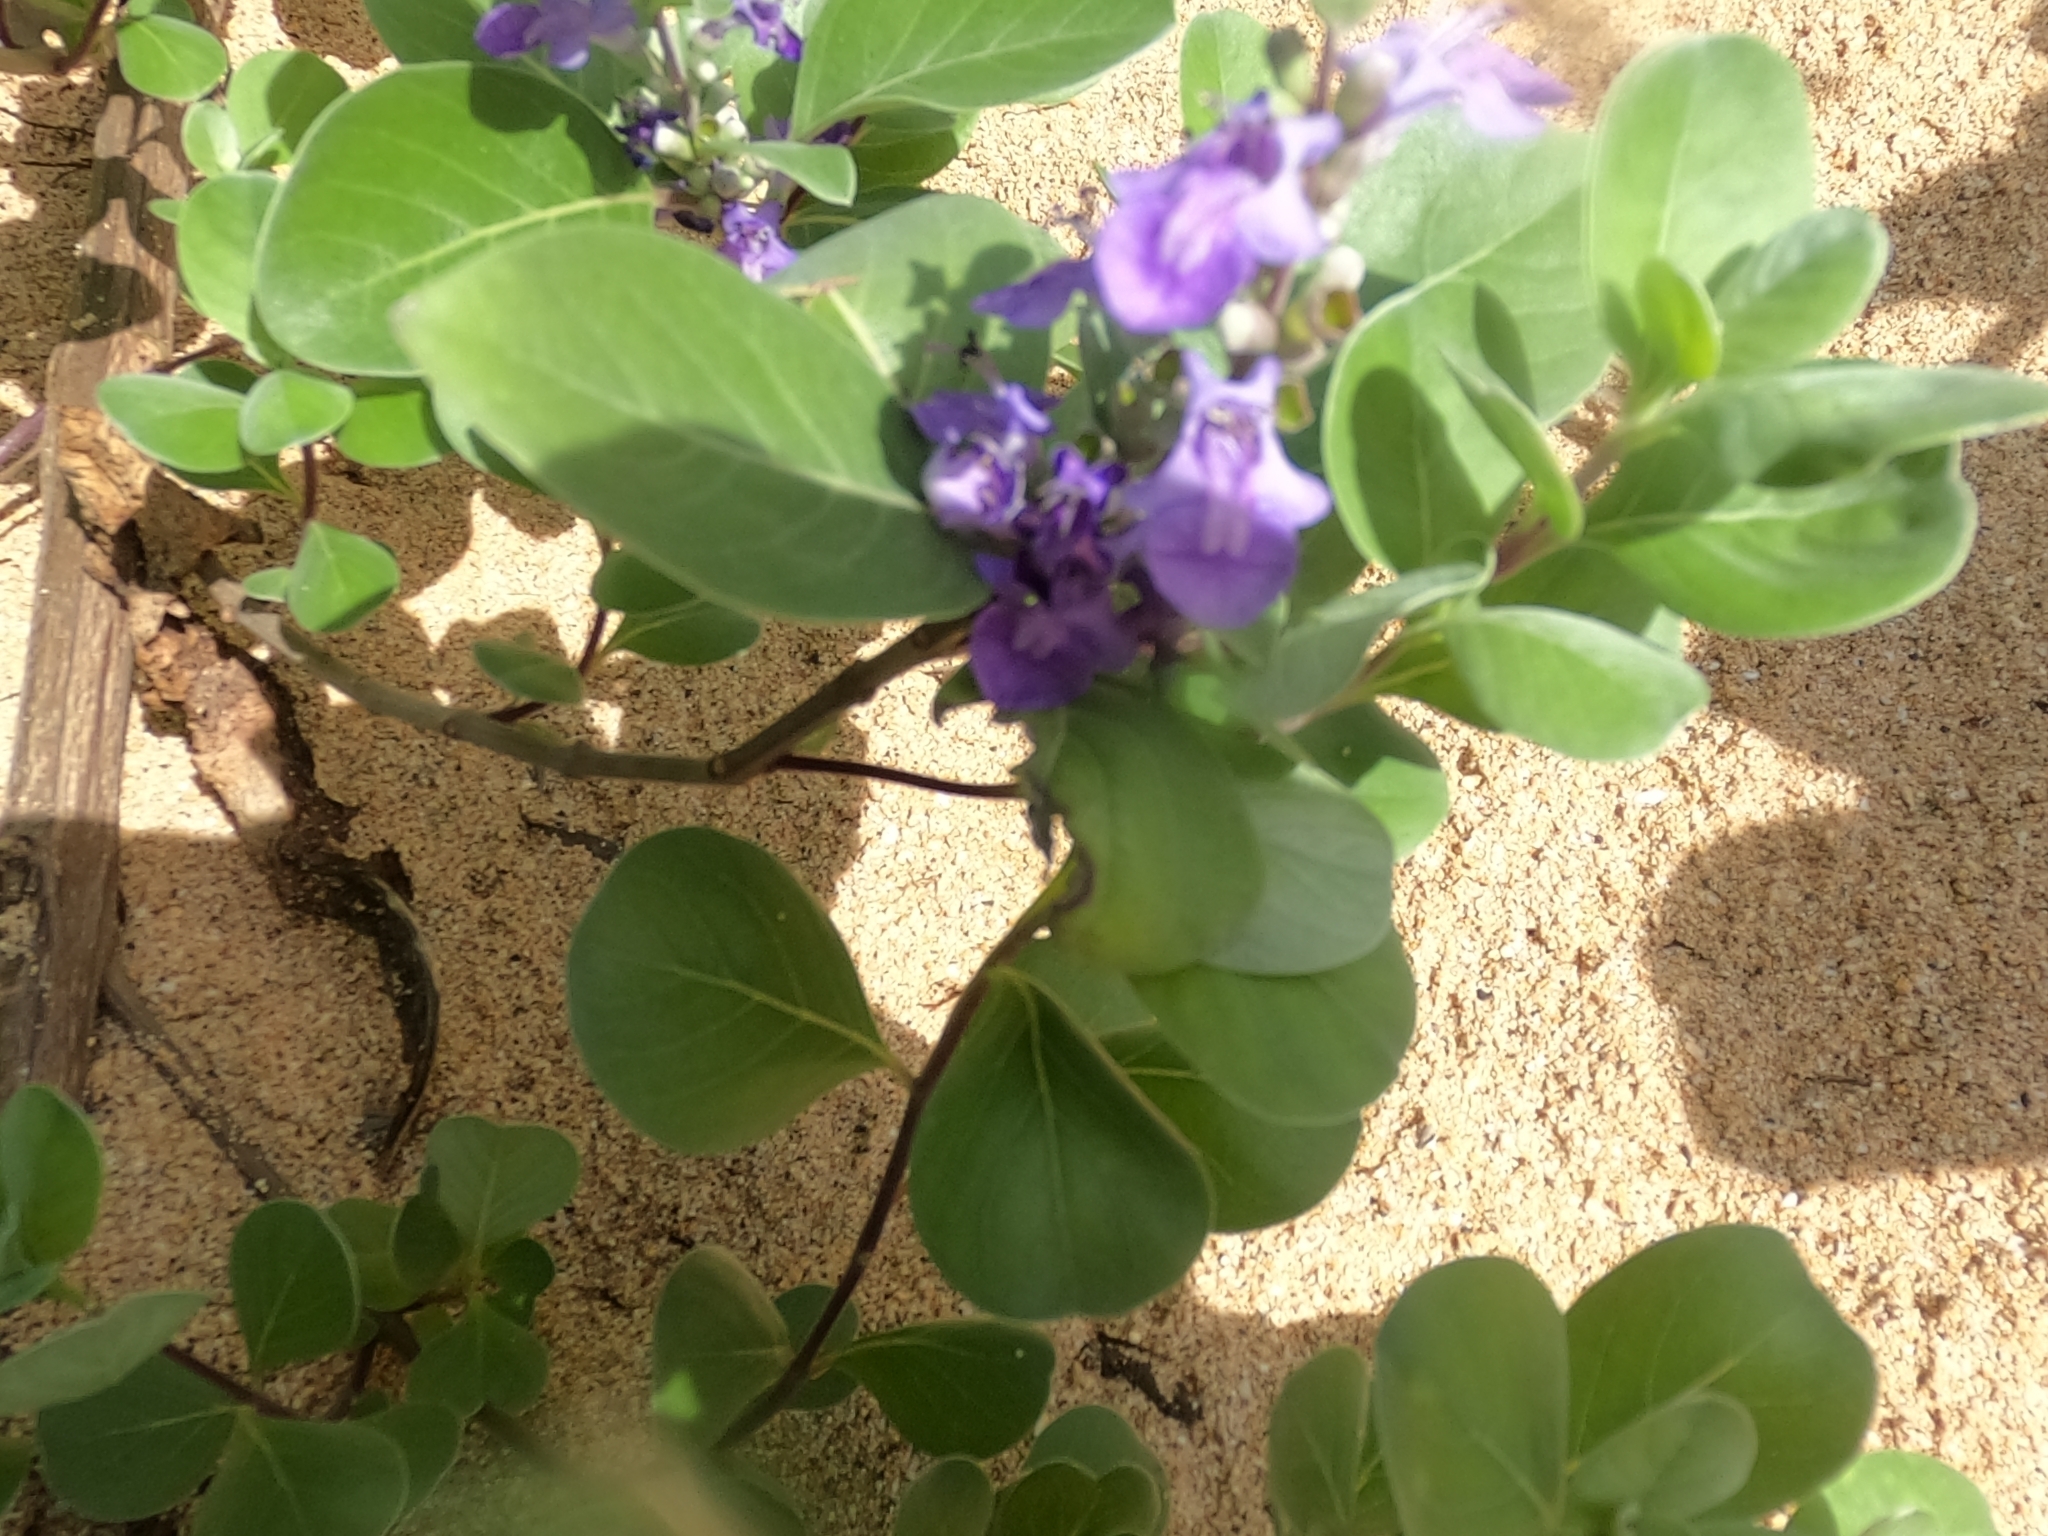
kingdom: Plantae
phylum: Tracheophyta
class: Magnoliopsida
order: Lamiales
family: Lamiaceae
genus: Vitex
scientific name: Vitex rotundifolia
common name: Beach vitex
